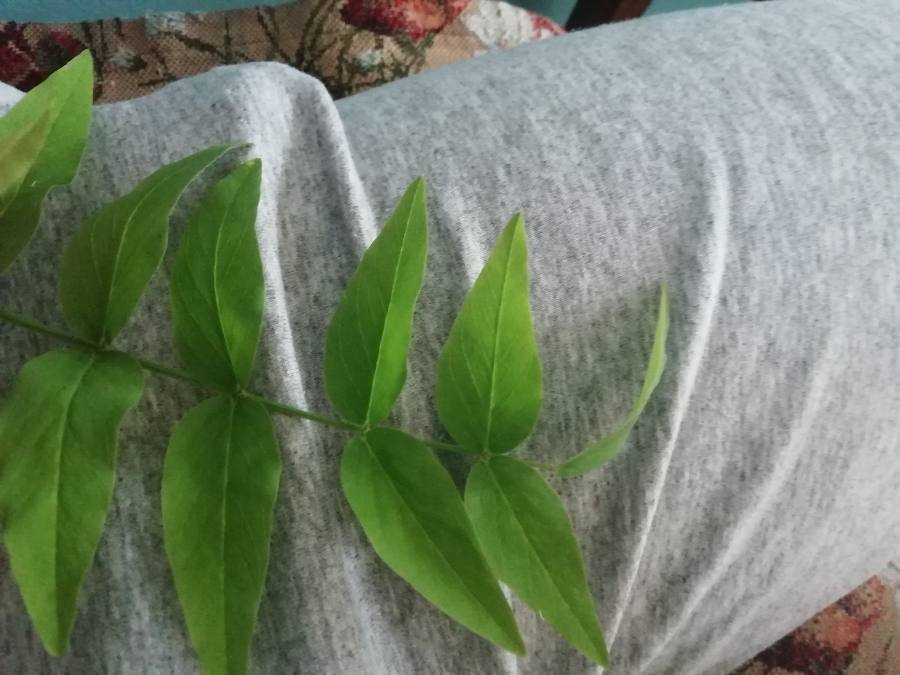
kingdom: Plantae
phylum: Tracheophyta
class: Magnoliopsida
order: Fabales
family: Fabaceae
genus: Galega
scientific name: Galega orientalis
